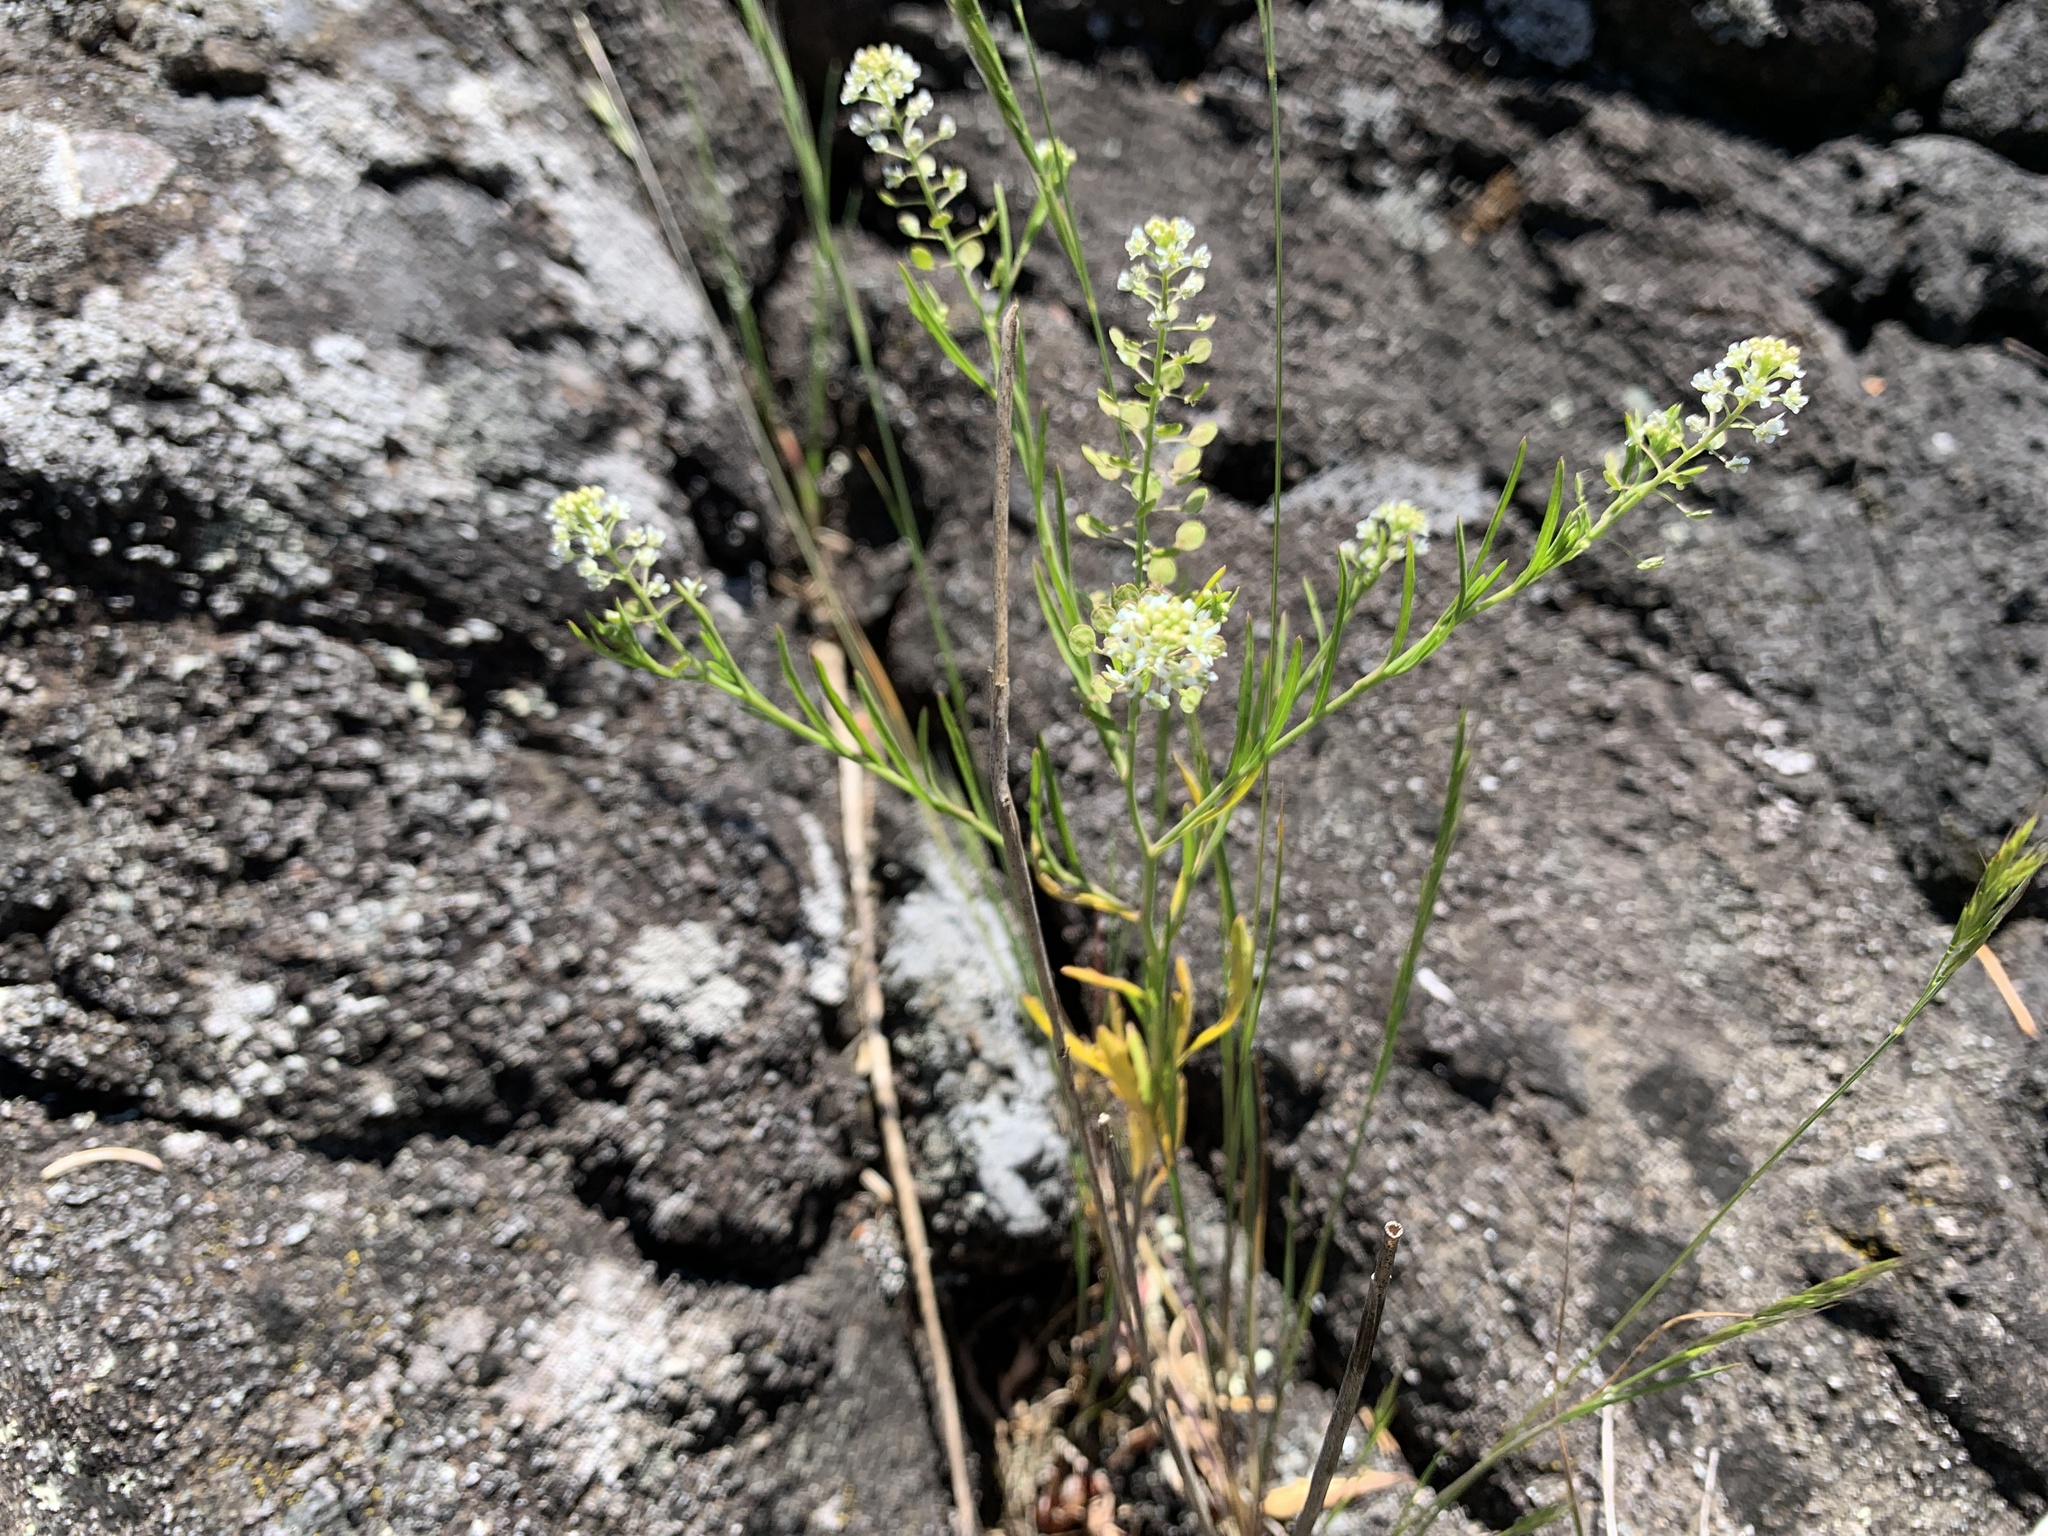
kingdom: Plantae
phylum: Tracheophyta
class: Magnoliopsida
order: Brassicales
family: Brassicaceae
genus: Lepidium
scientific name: Lepidium virginicum
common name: Least pepperwort
